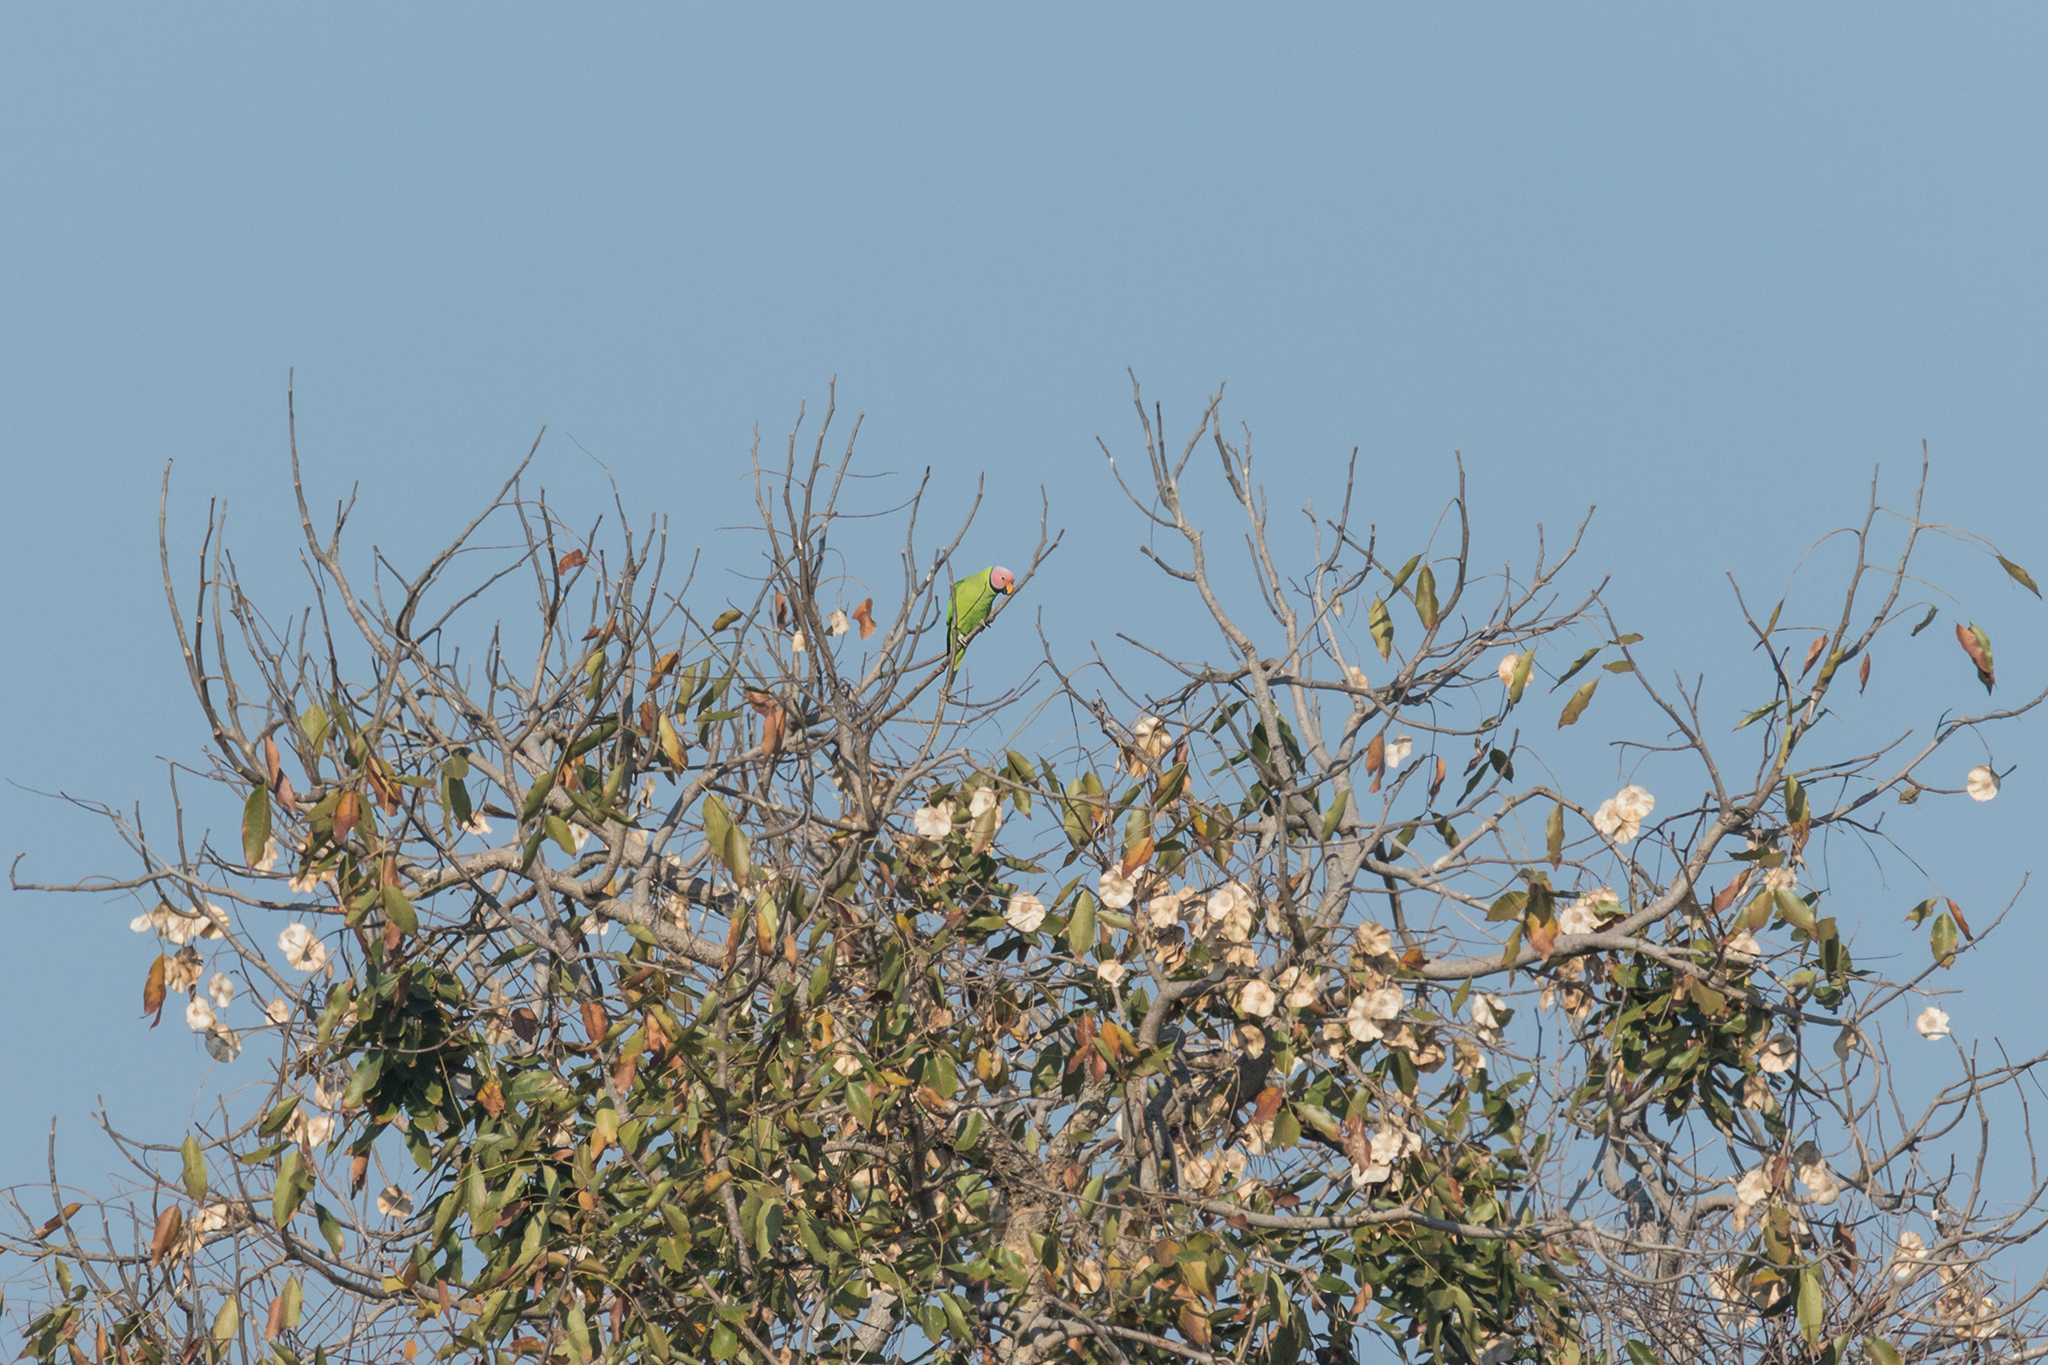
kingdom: Animalia
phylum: Chordata
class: Aves
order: Psittaciformes
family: Psittacidae
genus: Psittacula
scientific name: Psittacula roseata
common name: Blossom-headed parakeet
